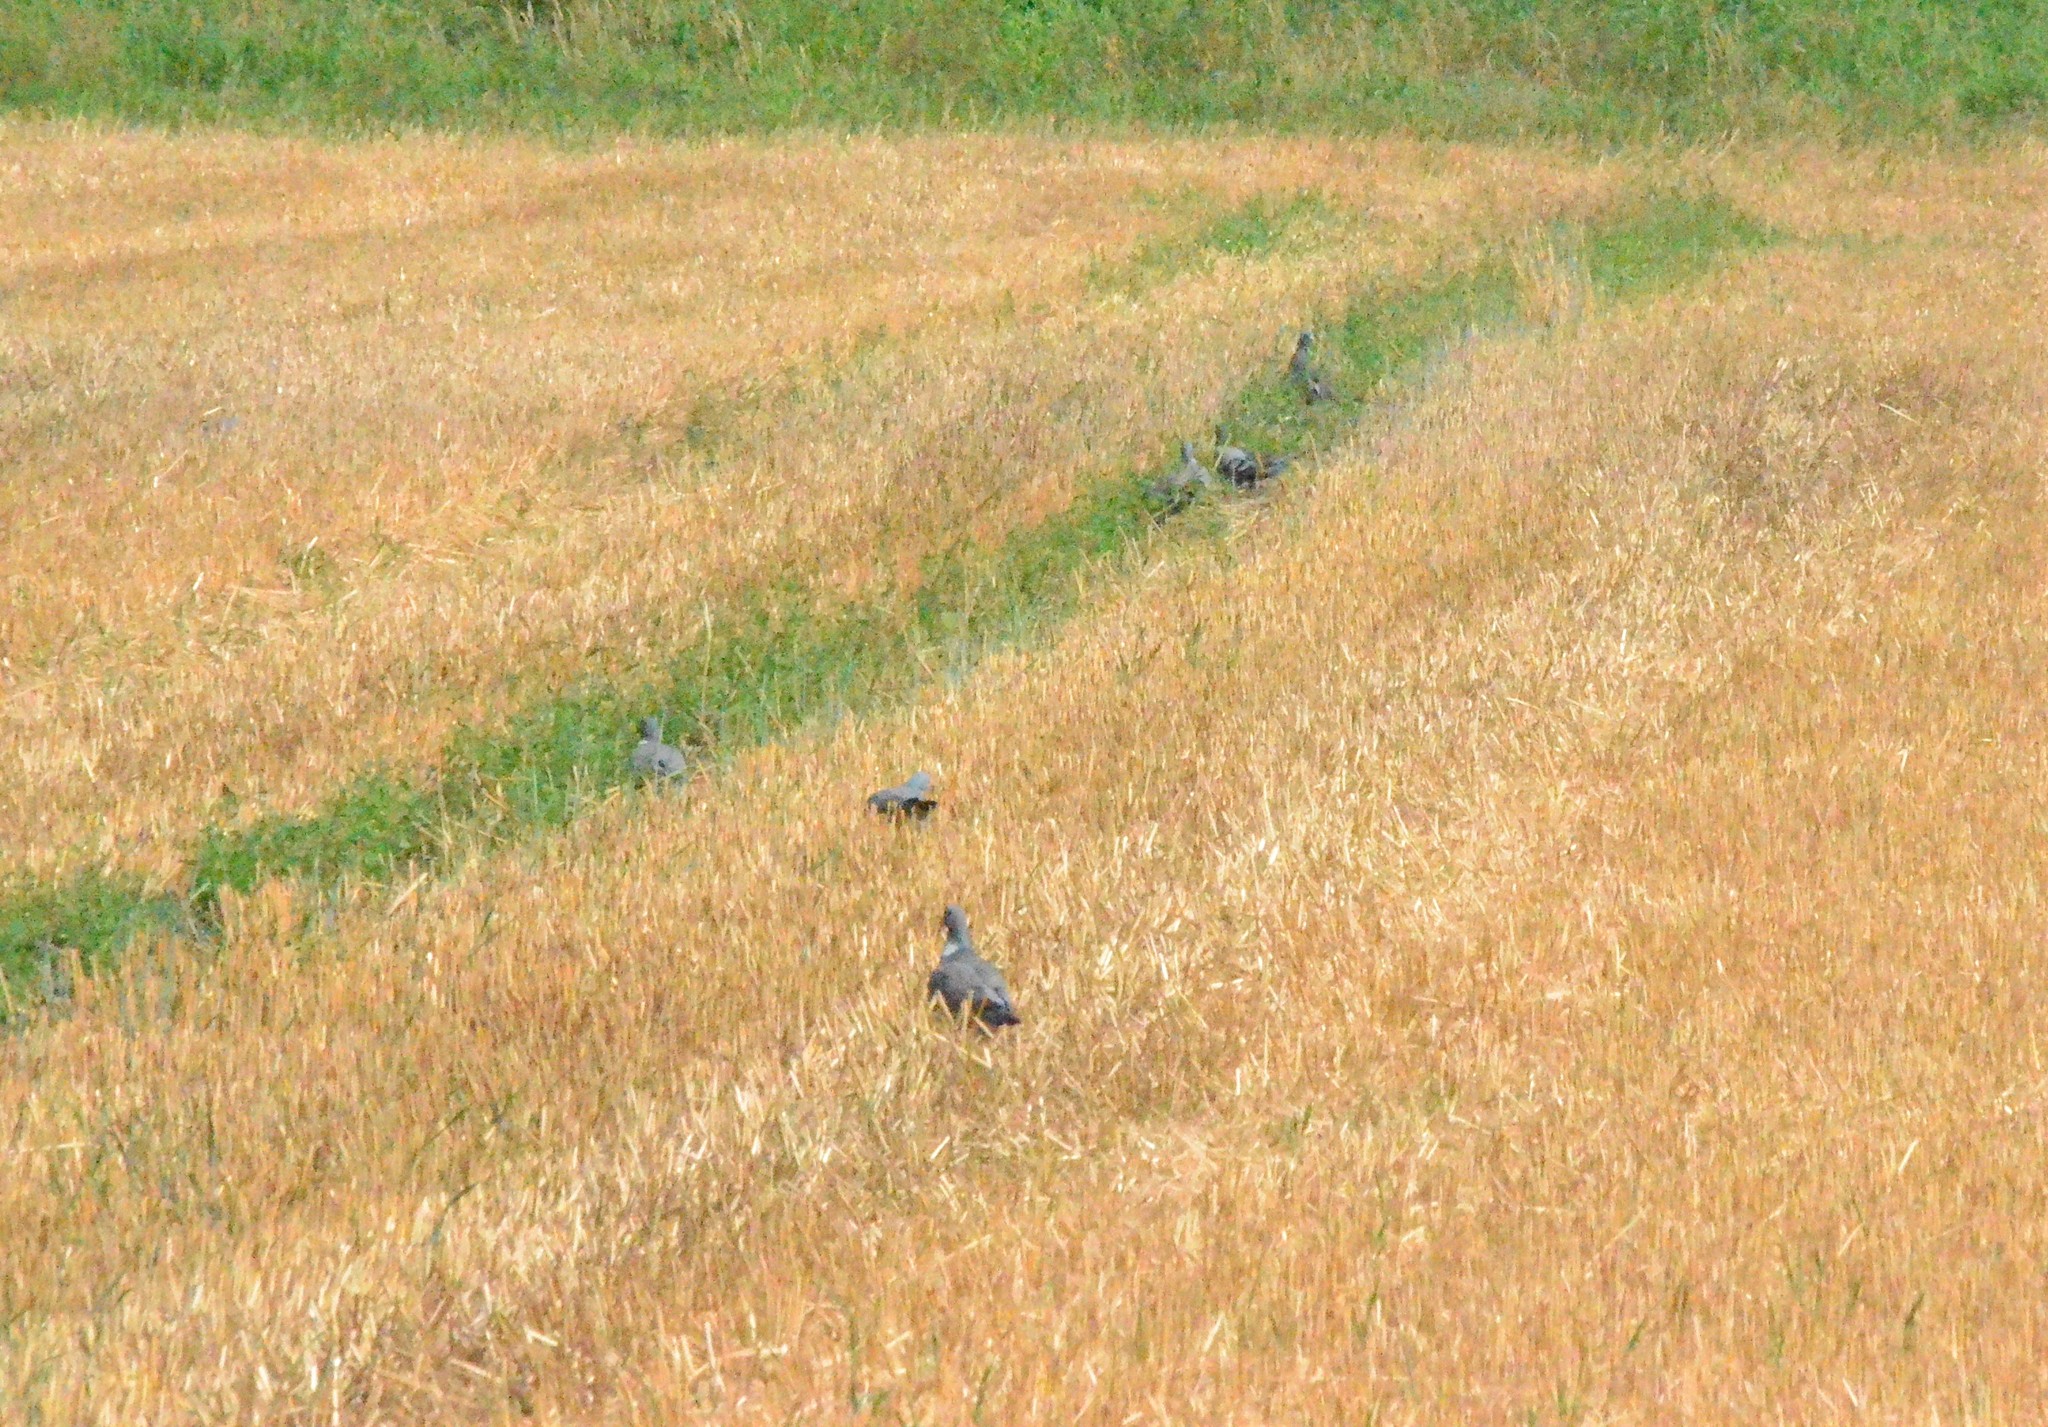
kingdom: Animalia
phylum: Chordata
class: Aves
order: Columbiformes
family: Columbidae
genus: Columba
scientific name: Columba palumbus
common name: Common wood pigeon
